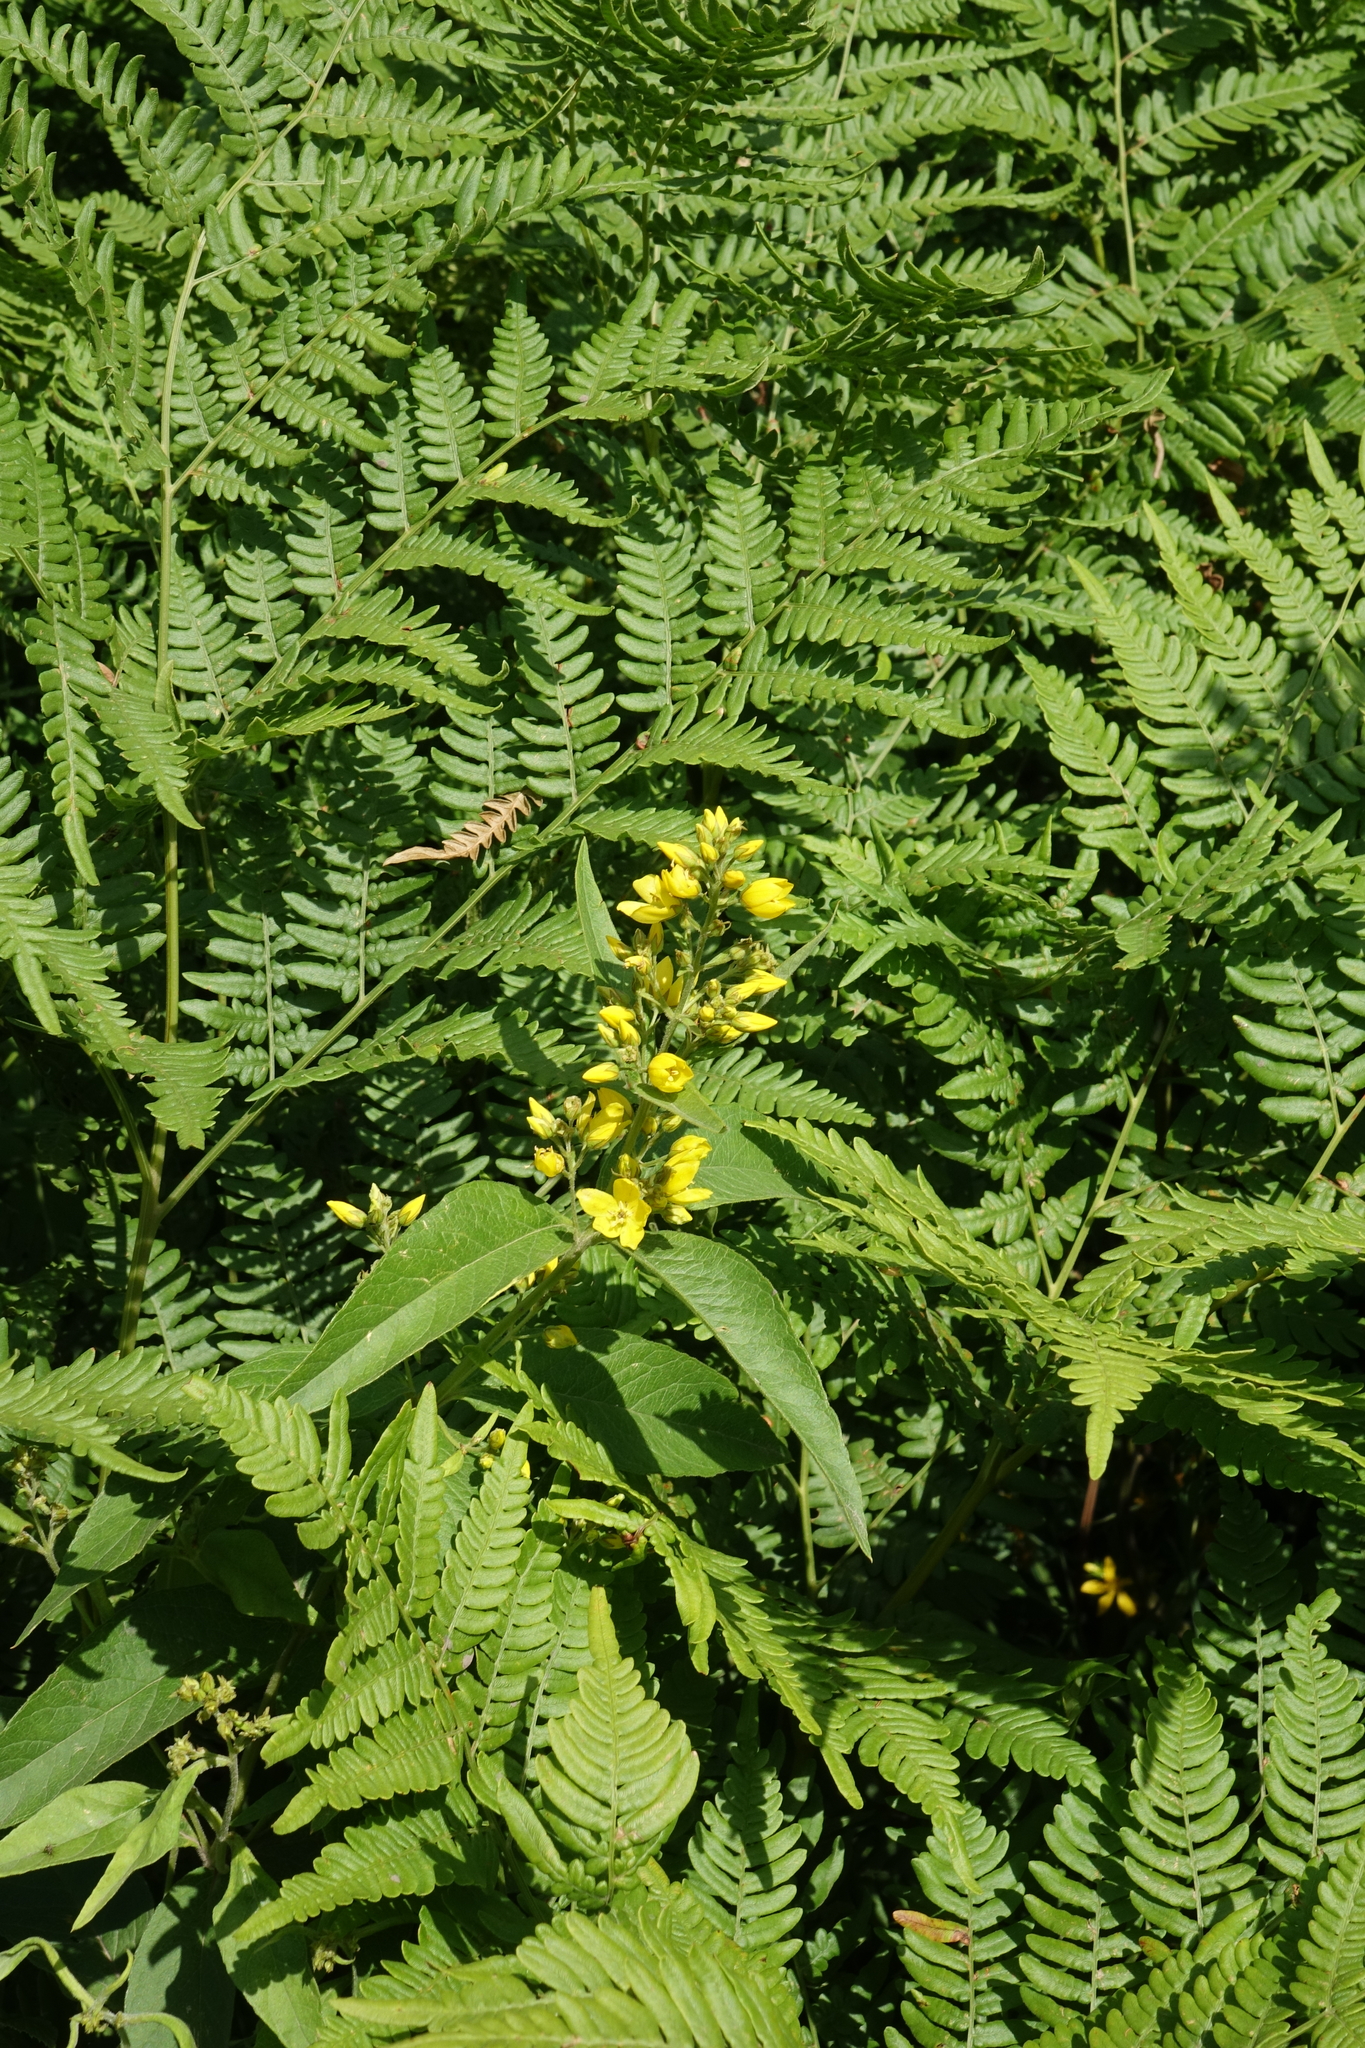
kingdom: Plantae
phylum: Tracheophyta
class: Magnoliopsida
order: Ericales
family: Primulaceae
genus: Lysimachia
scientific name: Lysimachia vulgaris
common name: Yellow loosestrife
